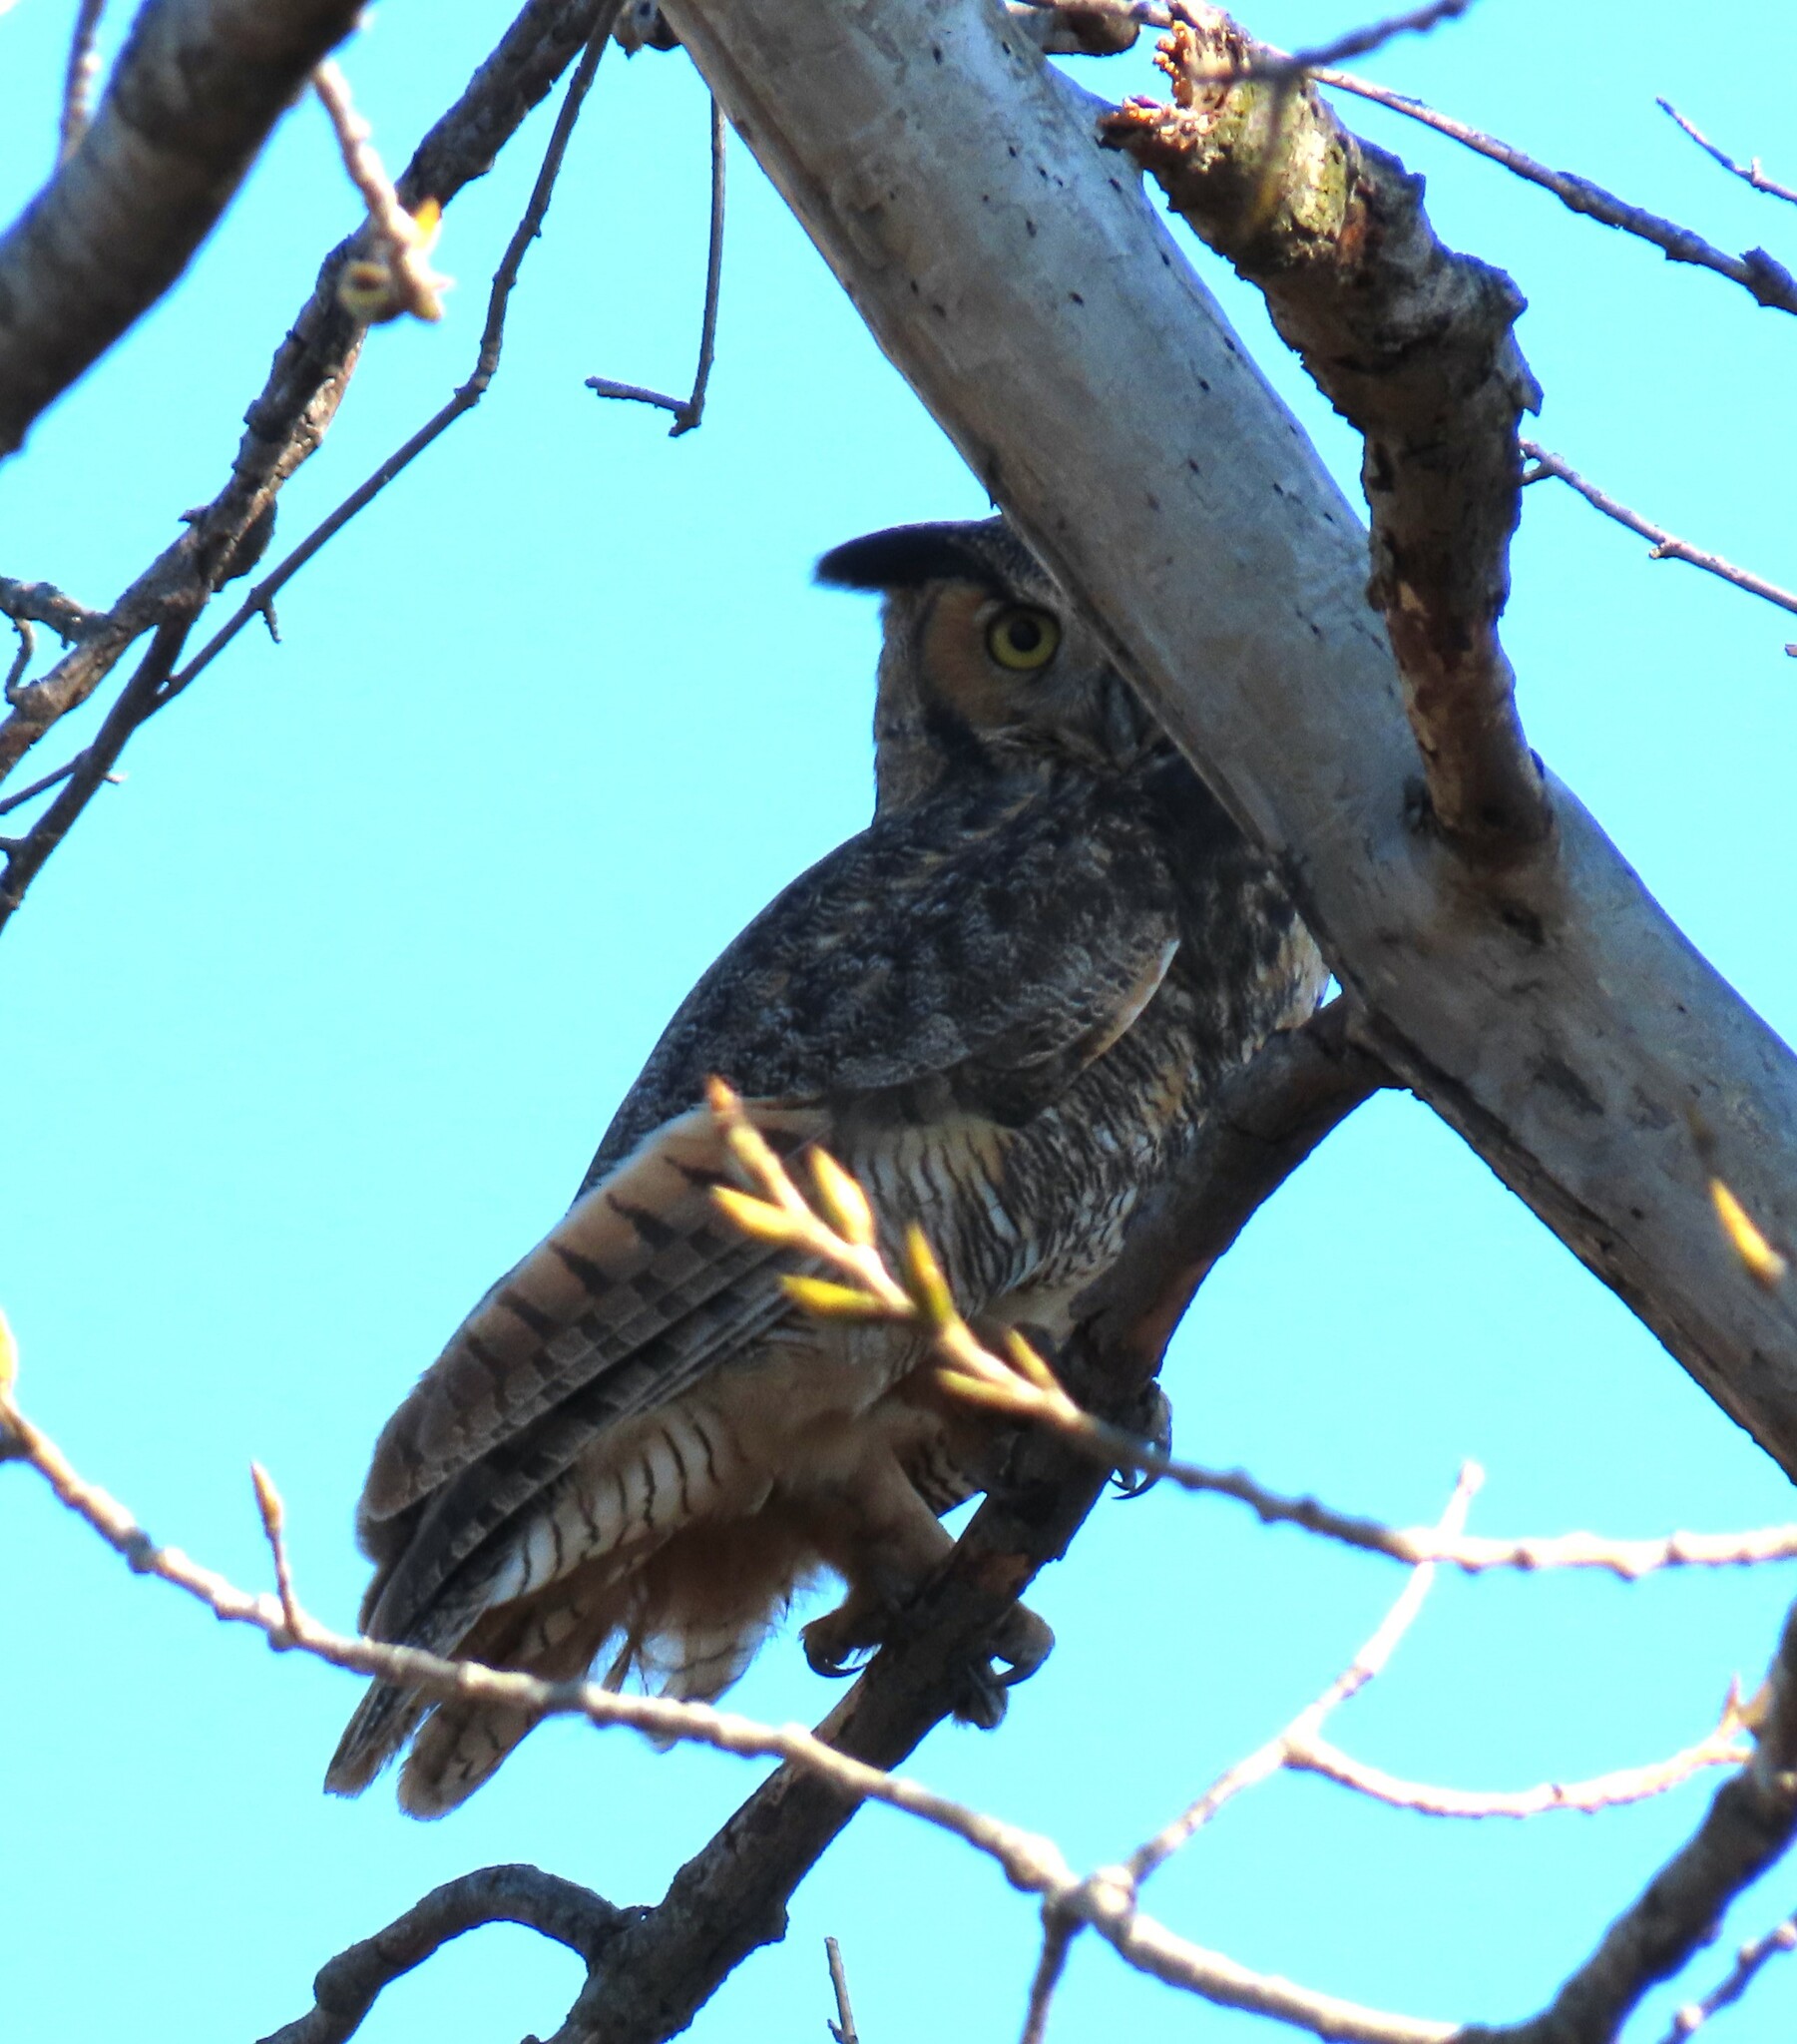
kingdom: Animalia
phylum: Chordata
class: Aves
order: Strigiformes
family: Strigidae
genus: Bubo
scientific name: Bubo virginianus
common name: Great horned owl
